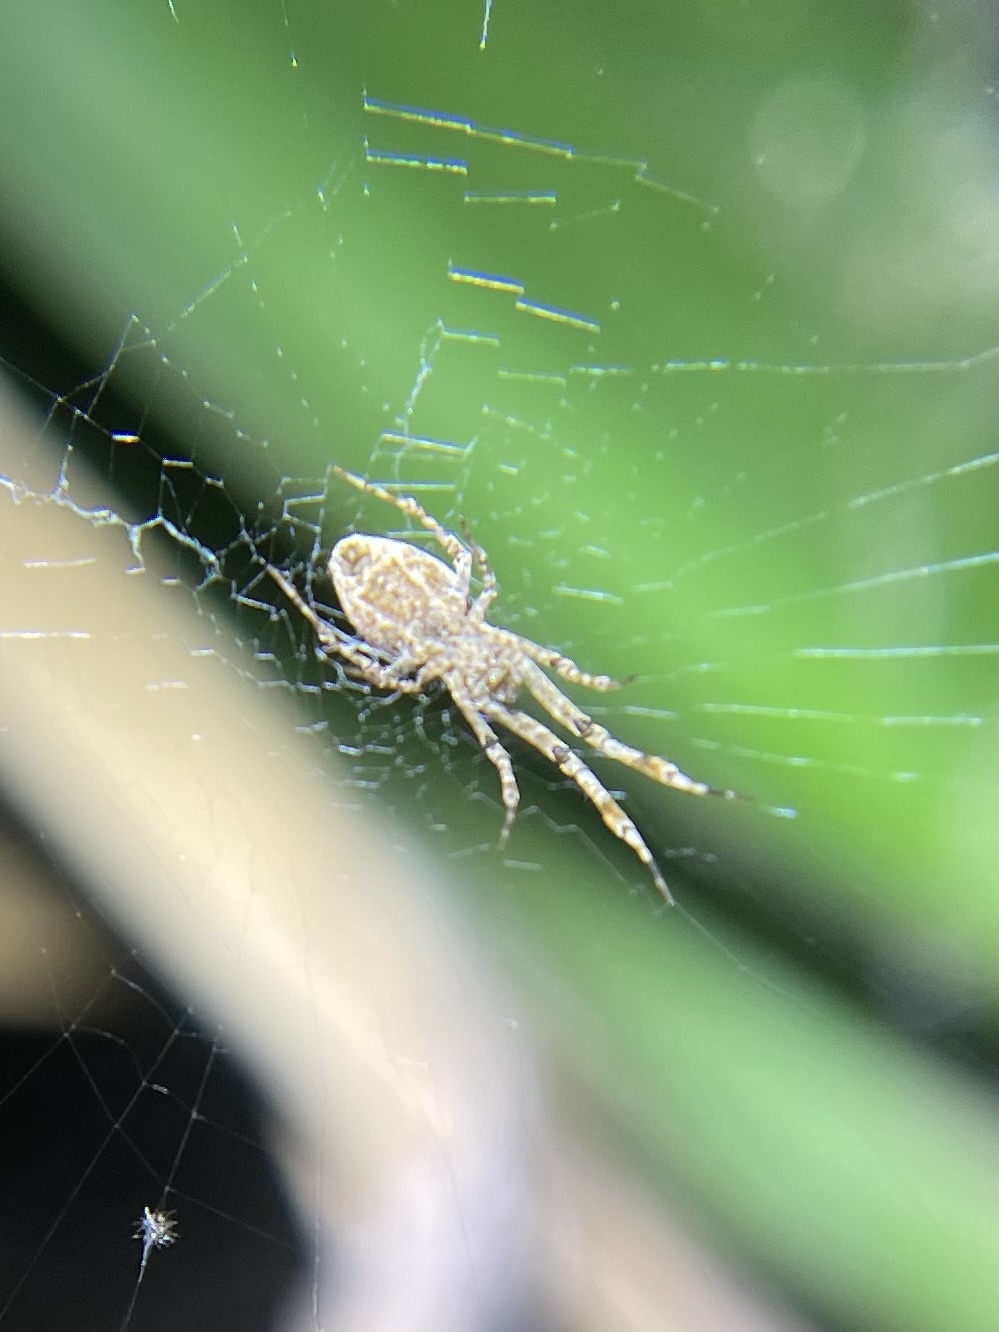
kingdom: Animalia
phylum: Arthropoda
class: Arachnida
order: Araneae
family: Uloboridae
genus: Uloborus
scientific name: Uloborus diversus
